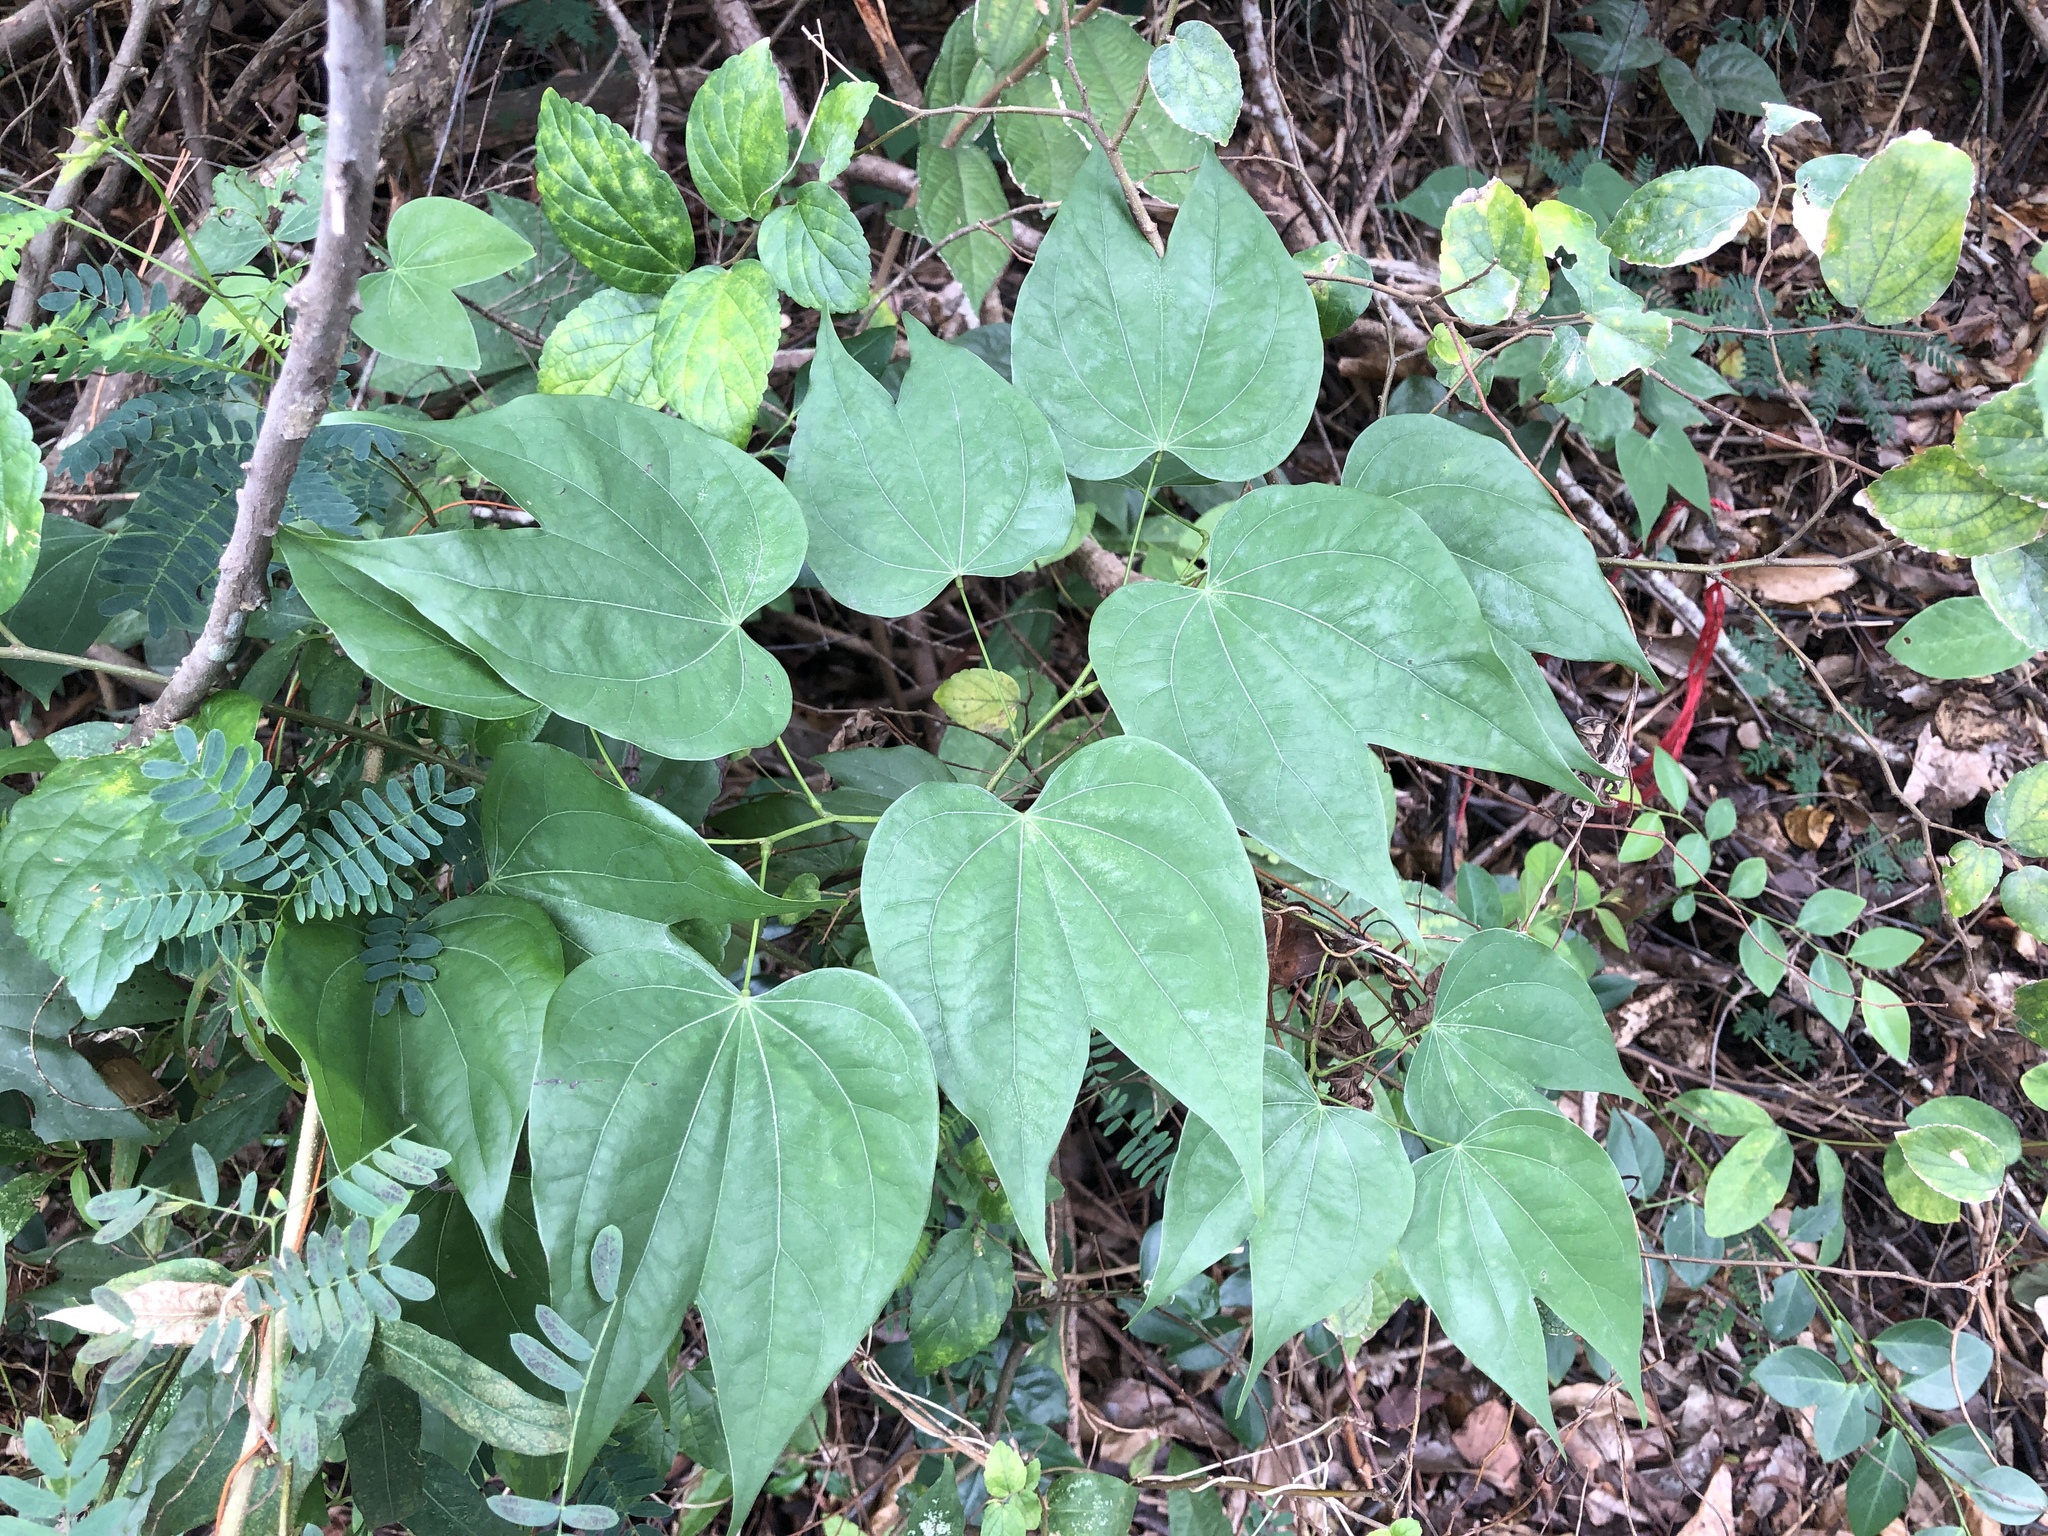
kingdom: Plantae
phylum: Tracheophyta
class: Magnoliopsida
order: Fabales
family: Fabaceae
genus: Phanera
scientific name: Phanera championii
